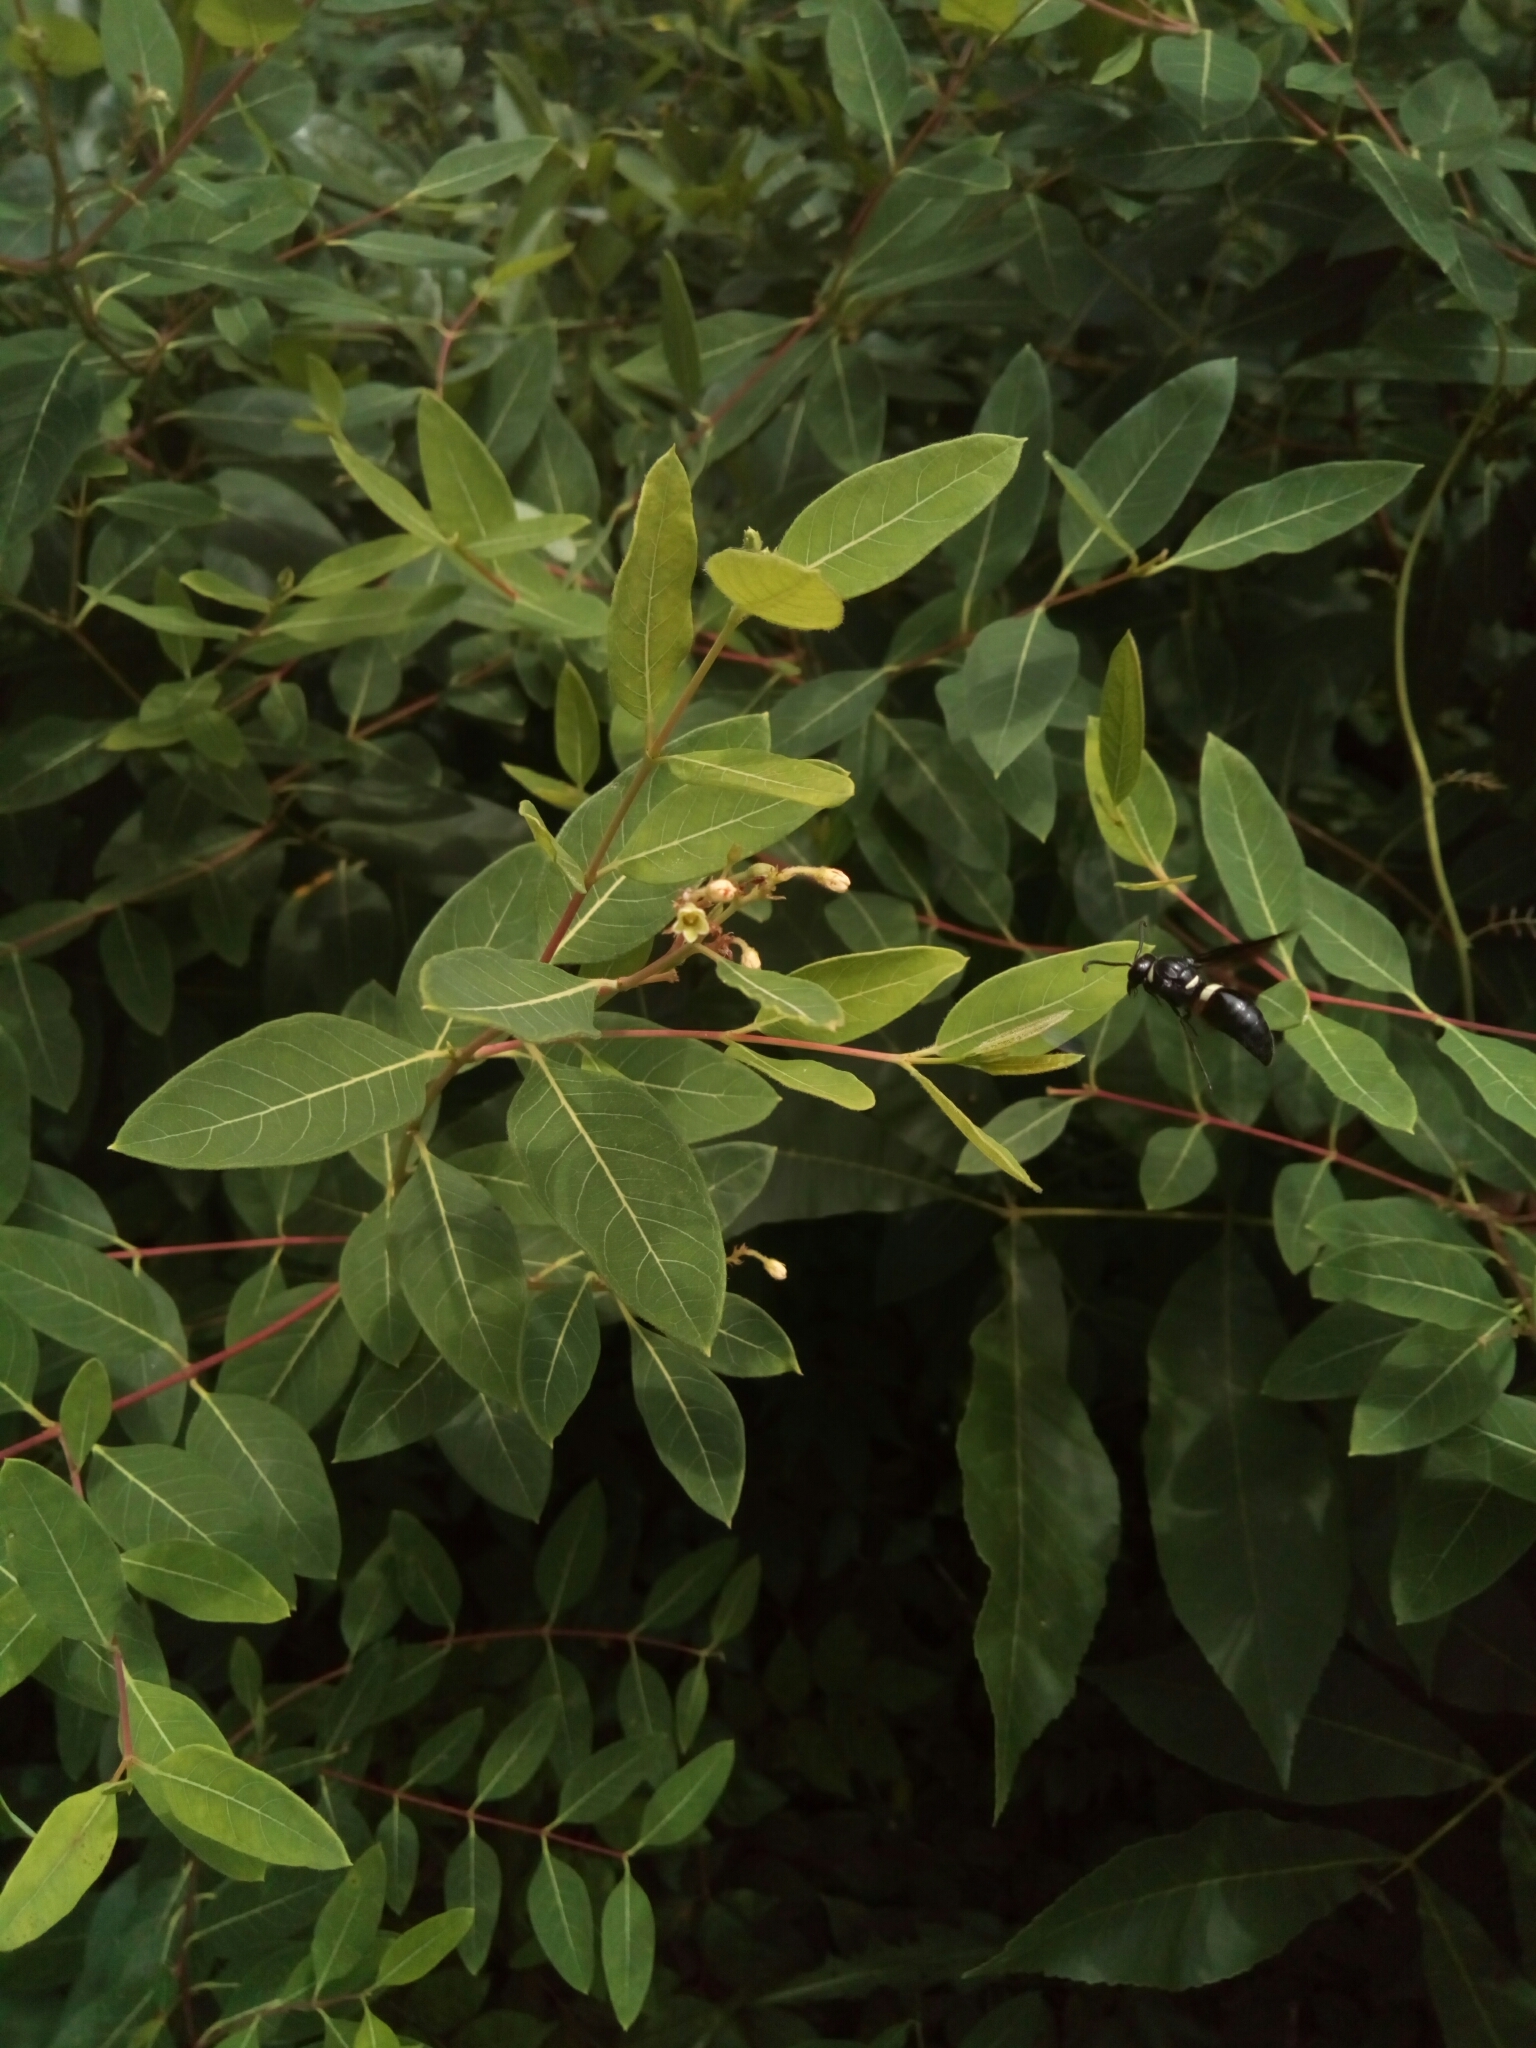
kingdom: Animalia
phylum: Arthropoda
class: Insecta
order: Hymenoptera
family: Eumenidae
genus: Monobia
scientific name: Monobia quadridens
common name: Four-toothed mason wasp
